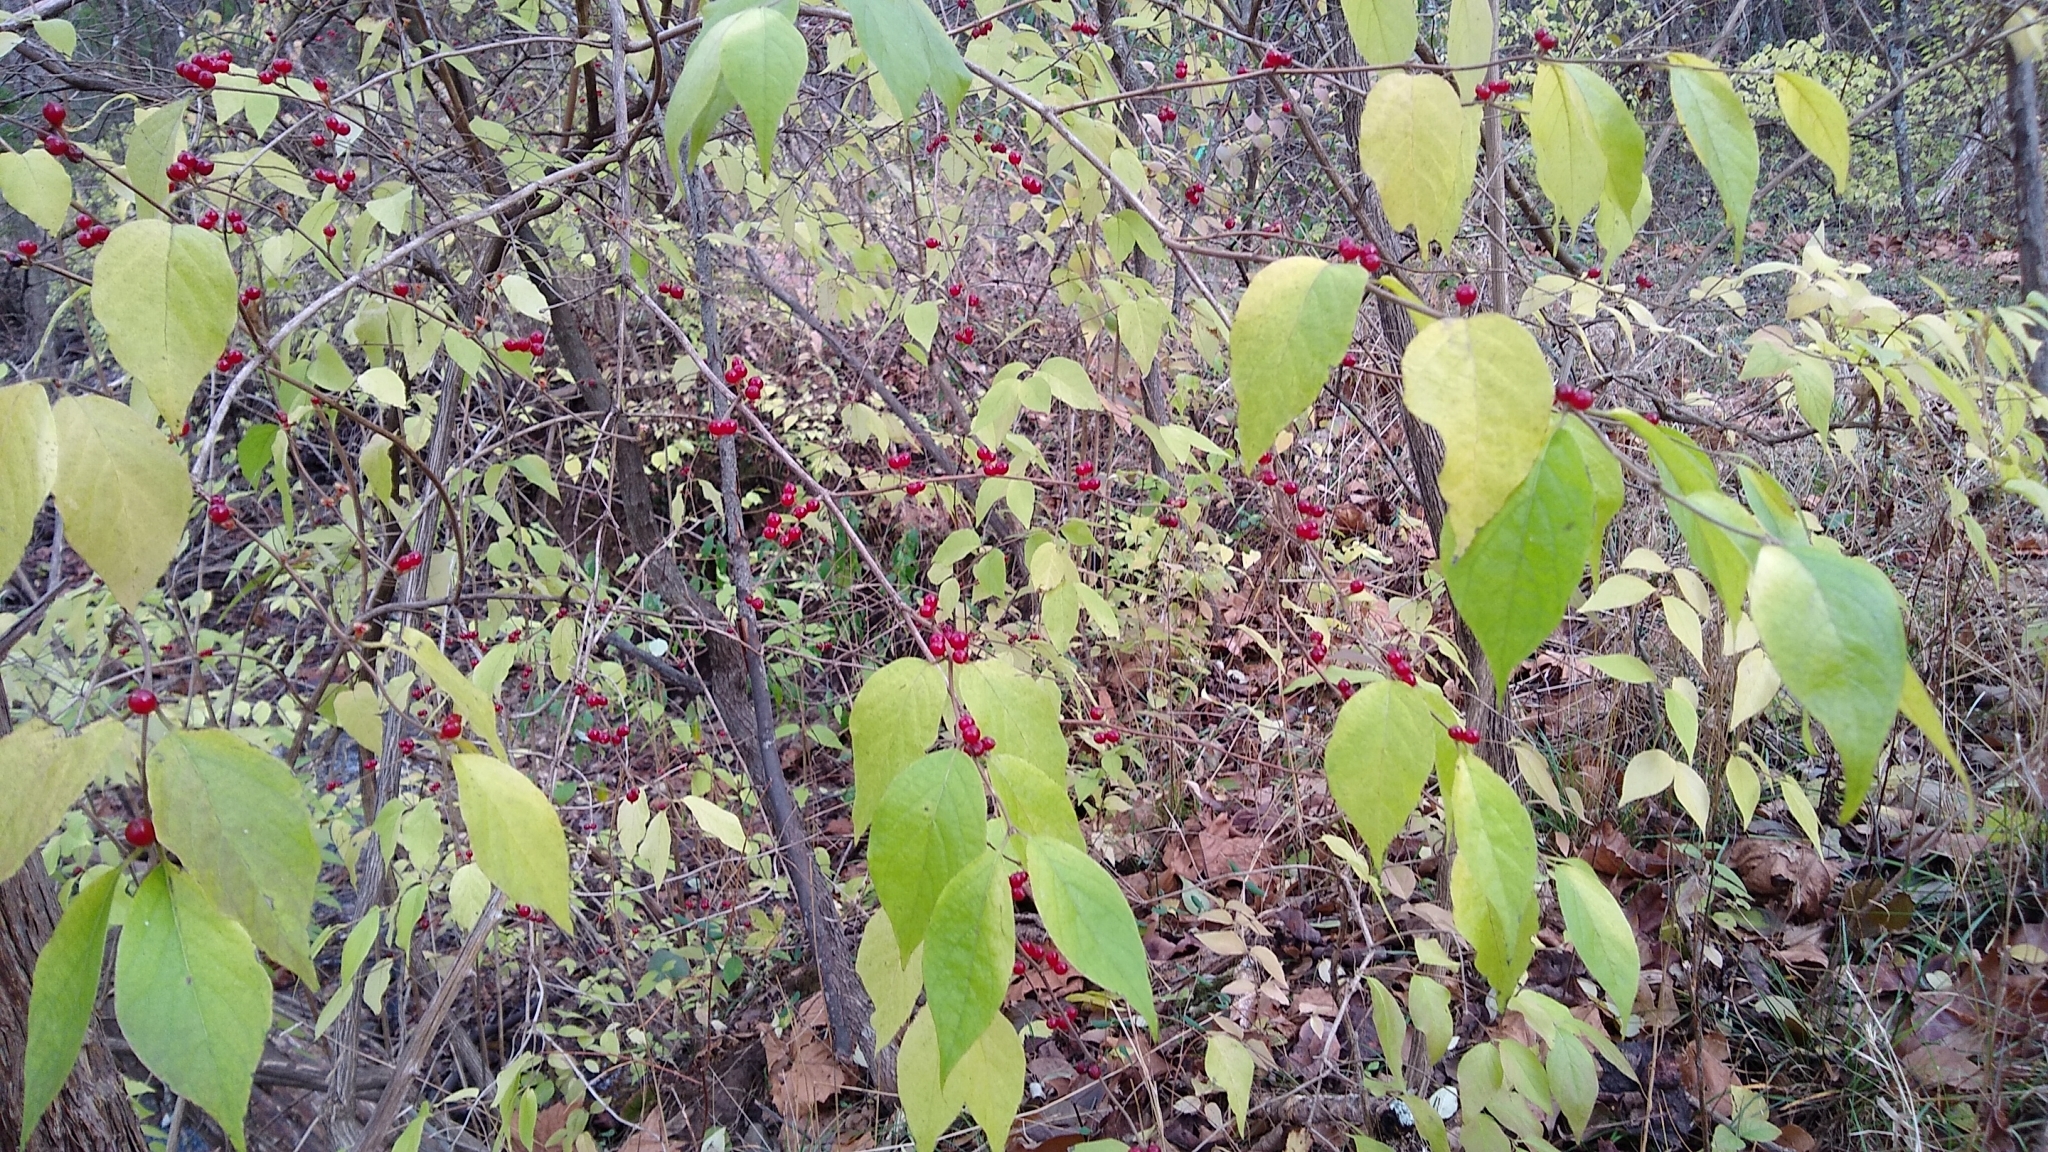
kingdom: Plantae
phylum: Tracheophyta
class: Magnoliopsida
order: Dipsacales
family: Caprifoliaceae
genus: Lonicera
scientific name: Lonicera maackii
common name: Amur honeysuckle
